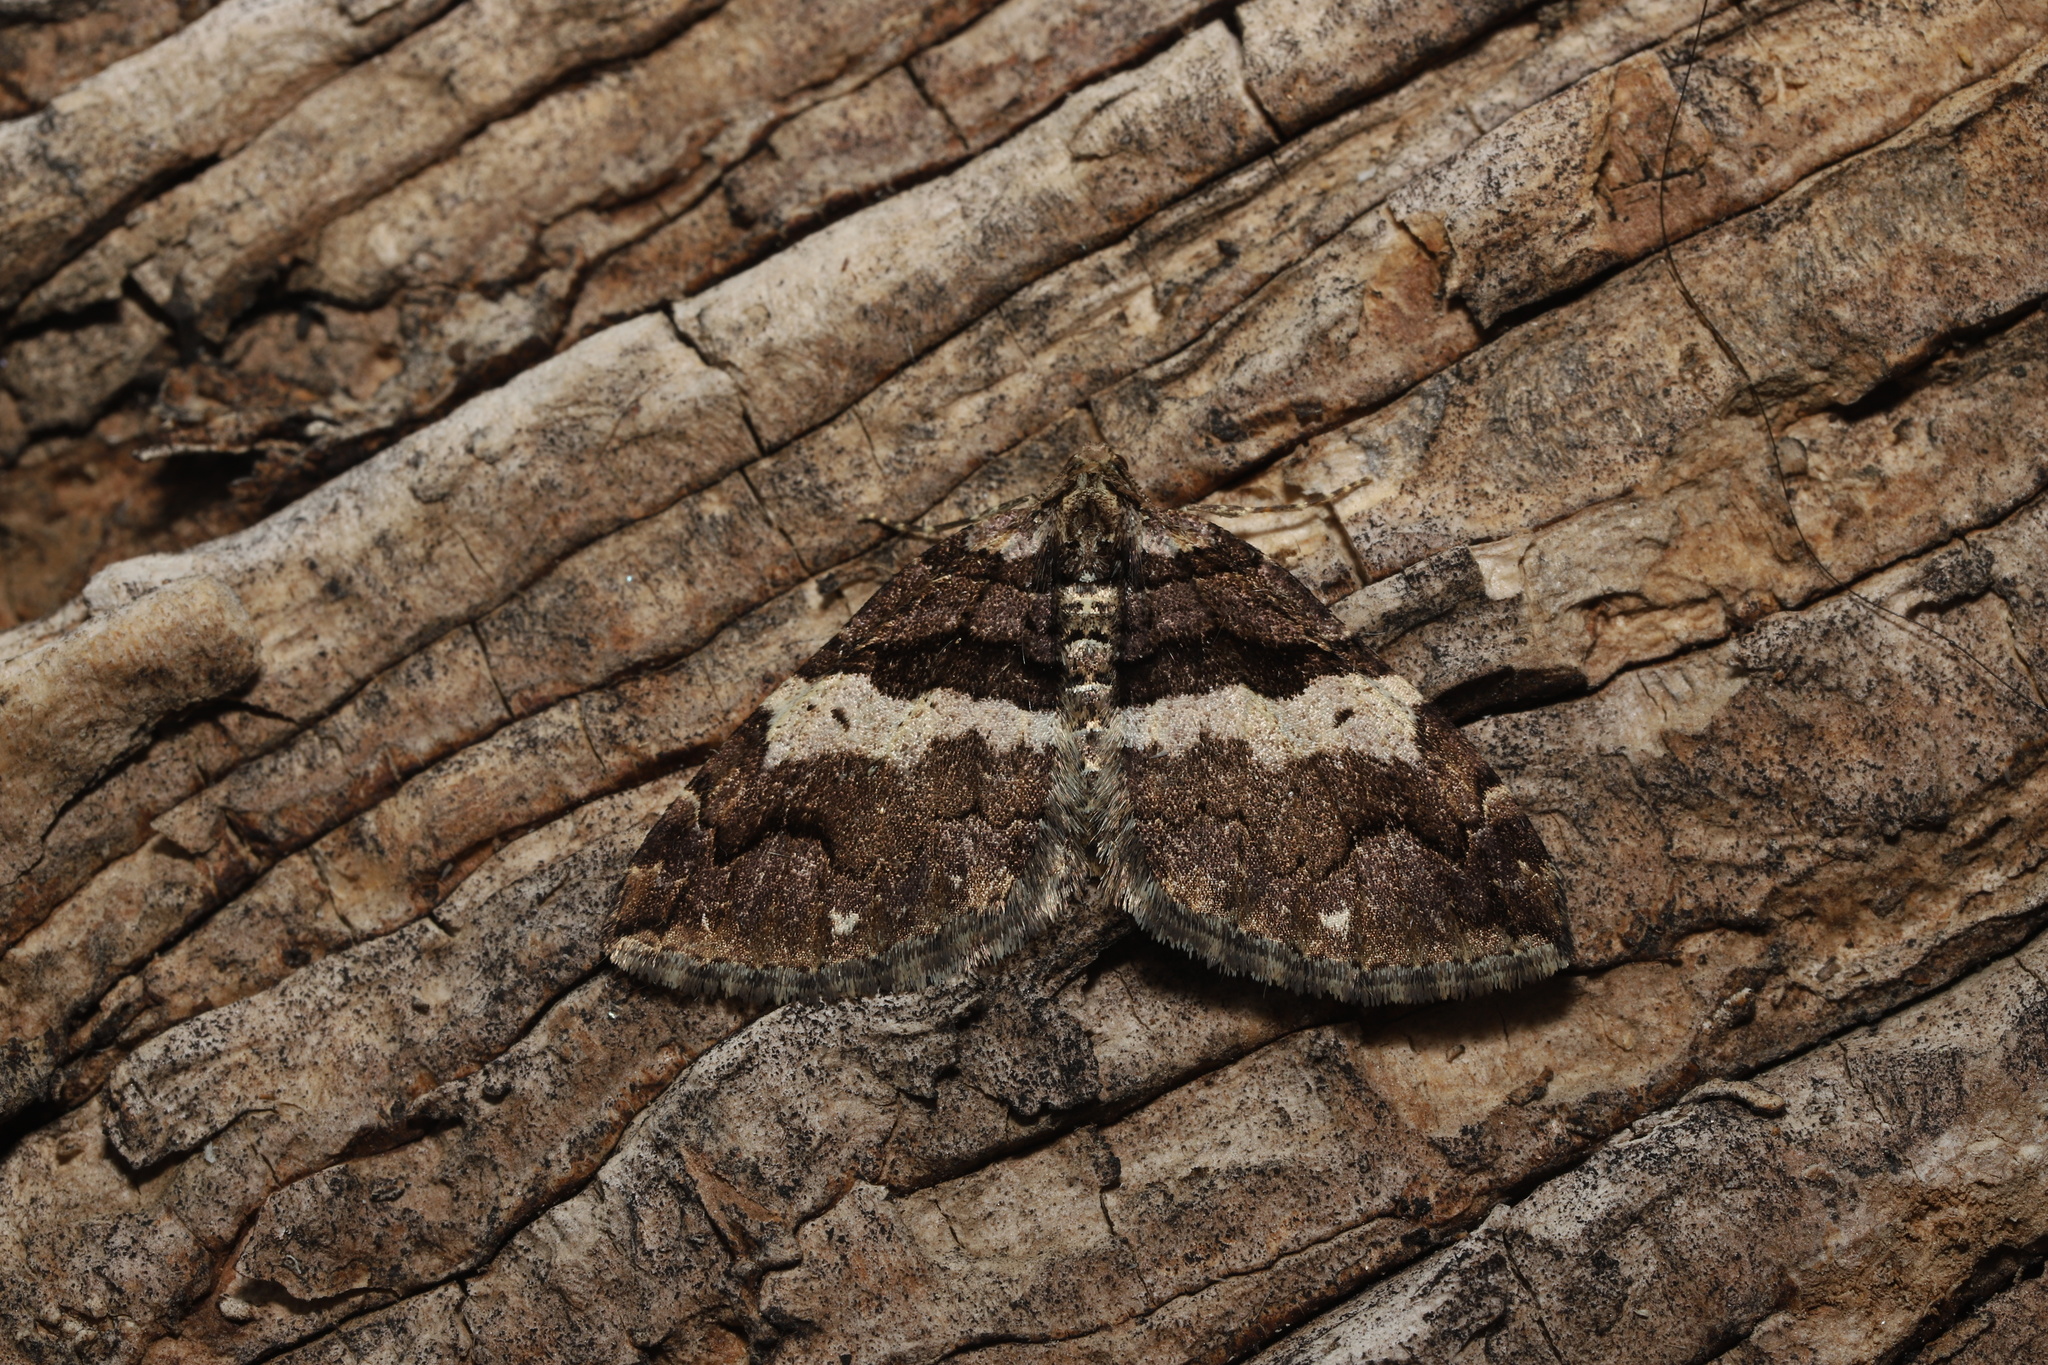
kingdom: Animalia
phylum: Arthropoda
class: Insecta
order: Lepidoptera
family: Geometridae
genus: Anticlea
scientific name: Anticlea vasiliata
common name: Variable carpet
